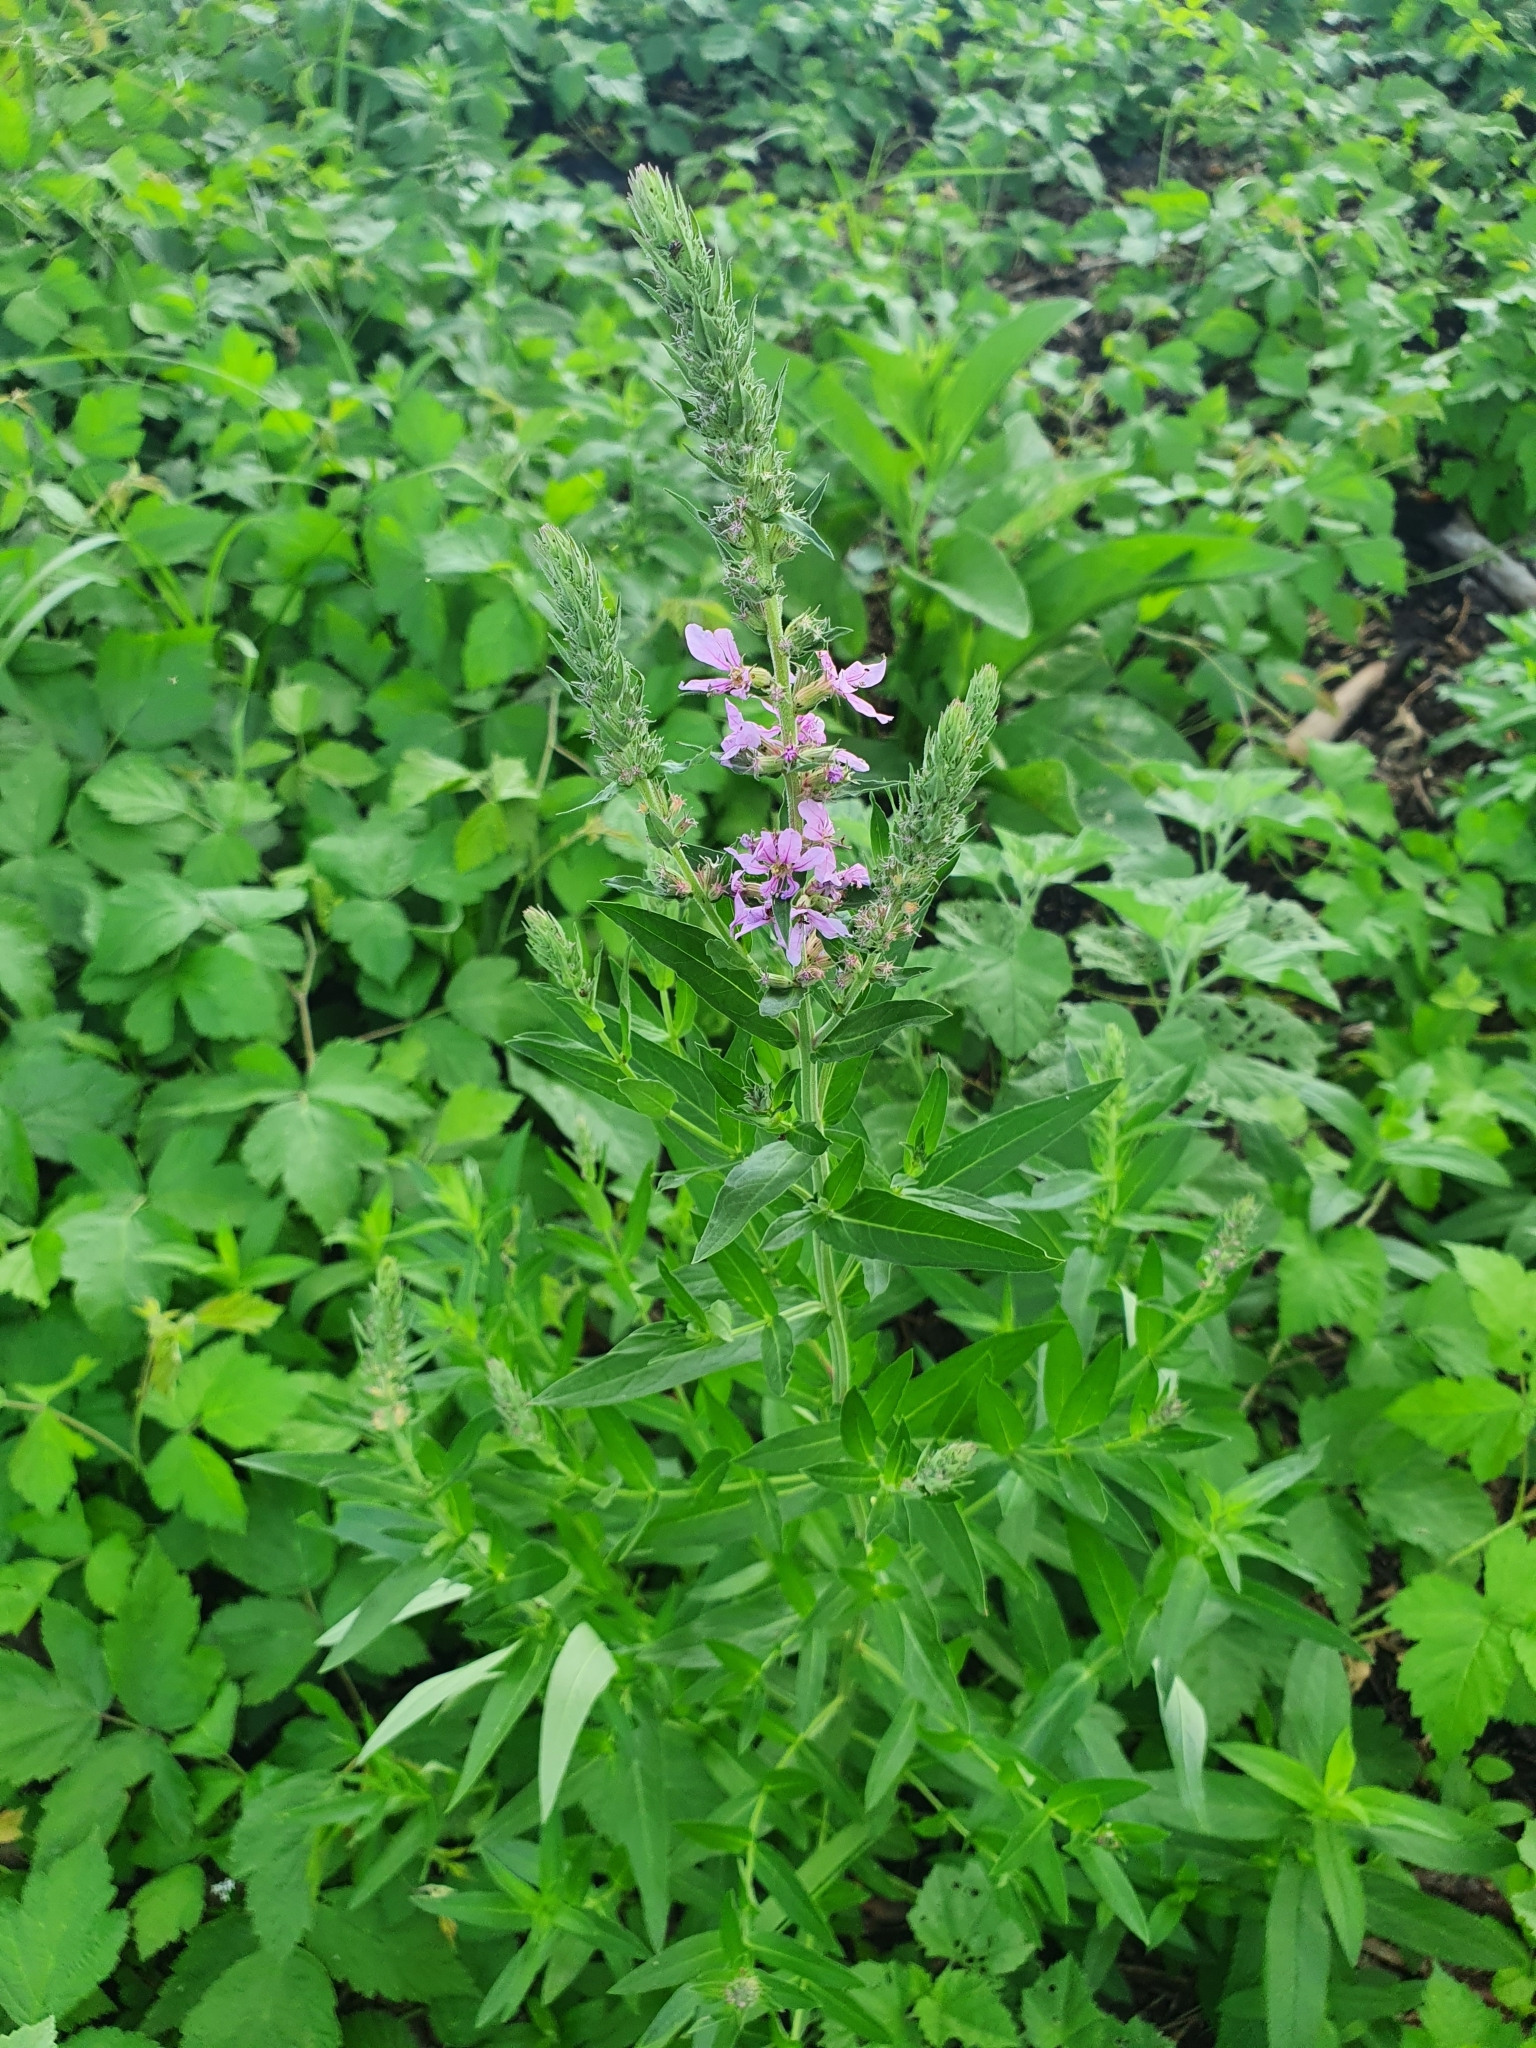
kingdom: Plantae
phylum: Tracheophyta
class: Magnoliopsida
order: Myrtales
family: Lythraceae
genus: Lythrum
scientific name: Lythrum salicaria
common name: Purple loosestrife
